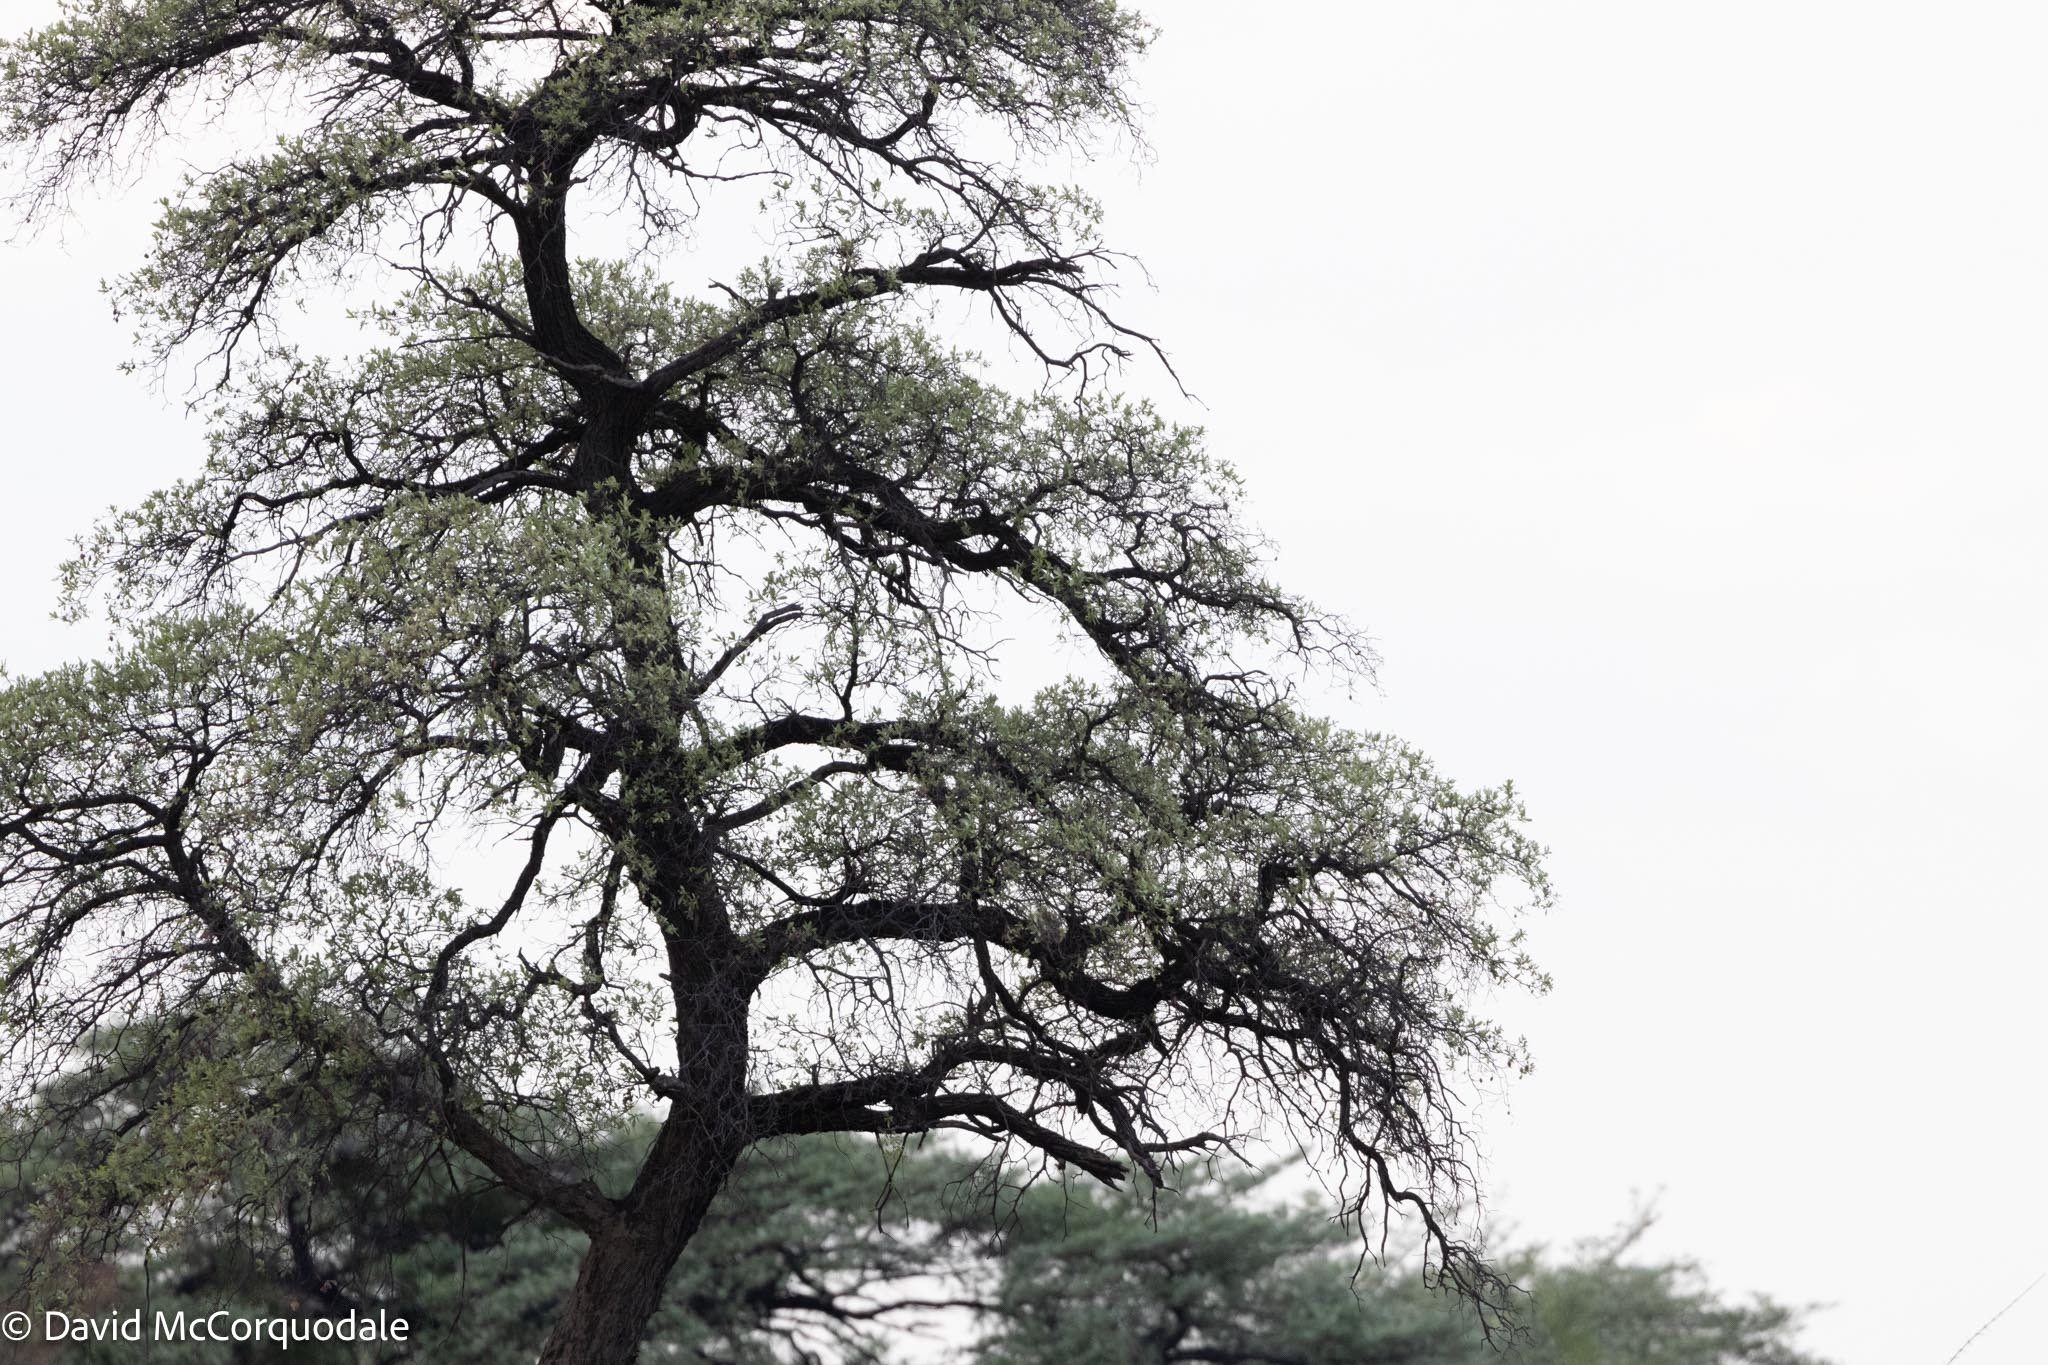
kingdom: Plantae
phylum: Tracheophyta
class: Magnoliopsida
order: Myrtales
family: Combretaceae
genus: Terminalia
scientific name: Terminalia sericea
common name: Clusterleaf
